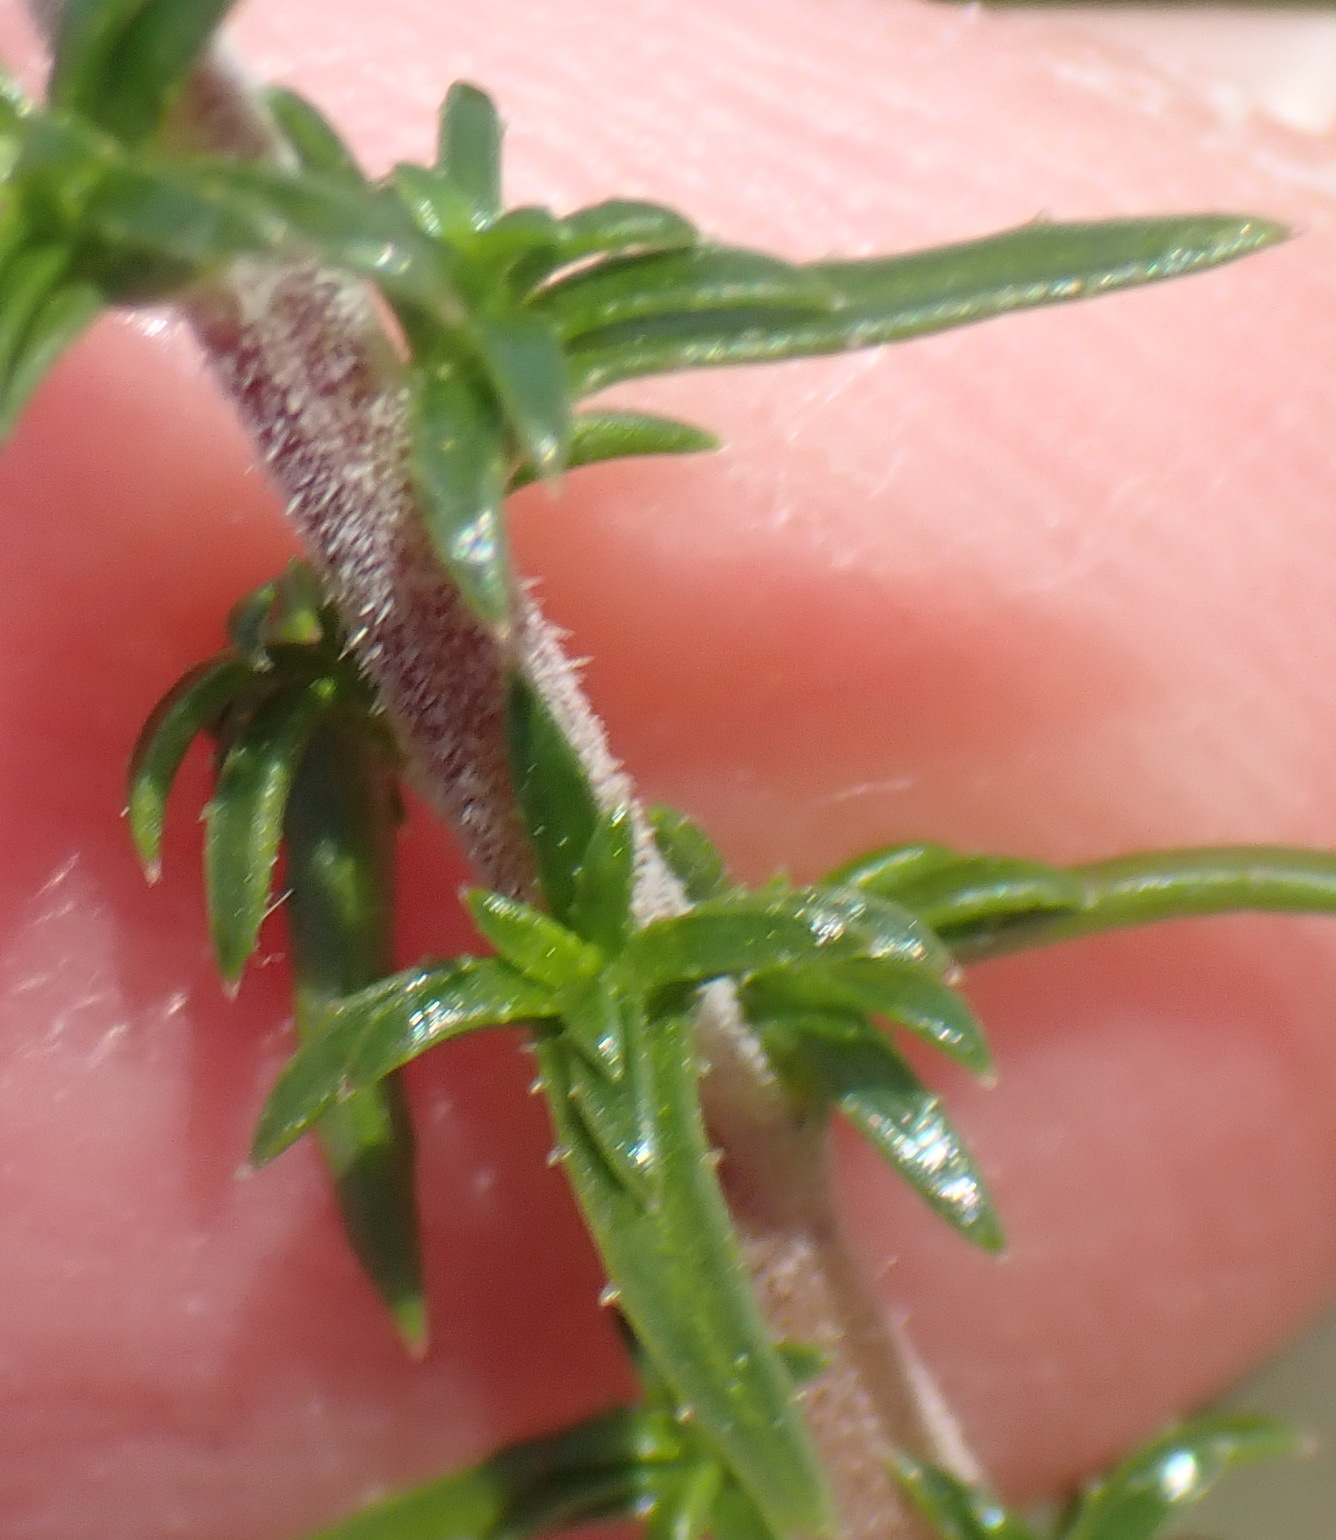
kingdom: Plantae
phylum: Tracheophyta
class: Magnoliopsida
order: Asterales
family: Campanulaceae
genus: Wahlenbergia
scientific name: Wahlenbergia neostricta
